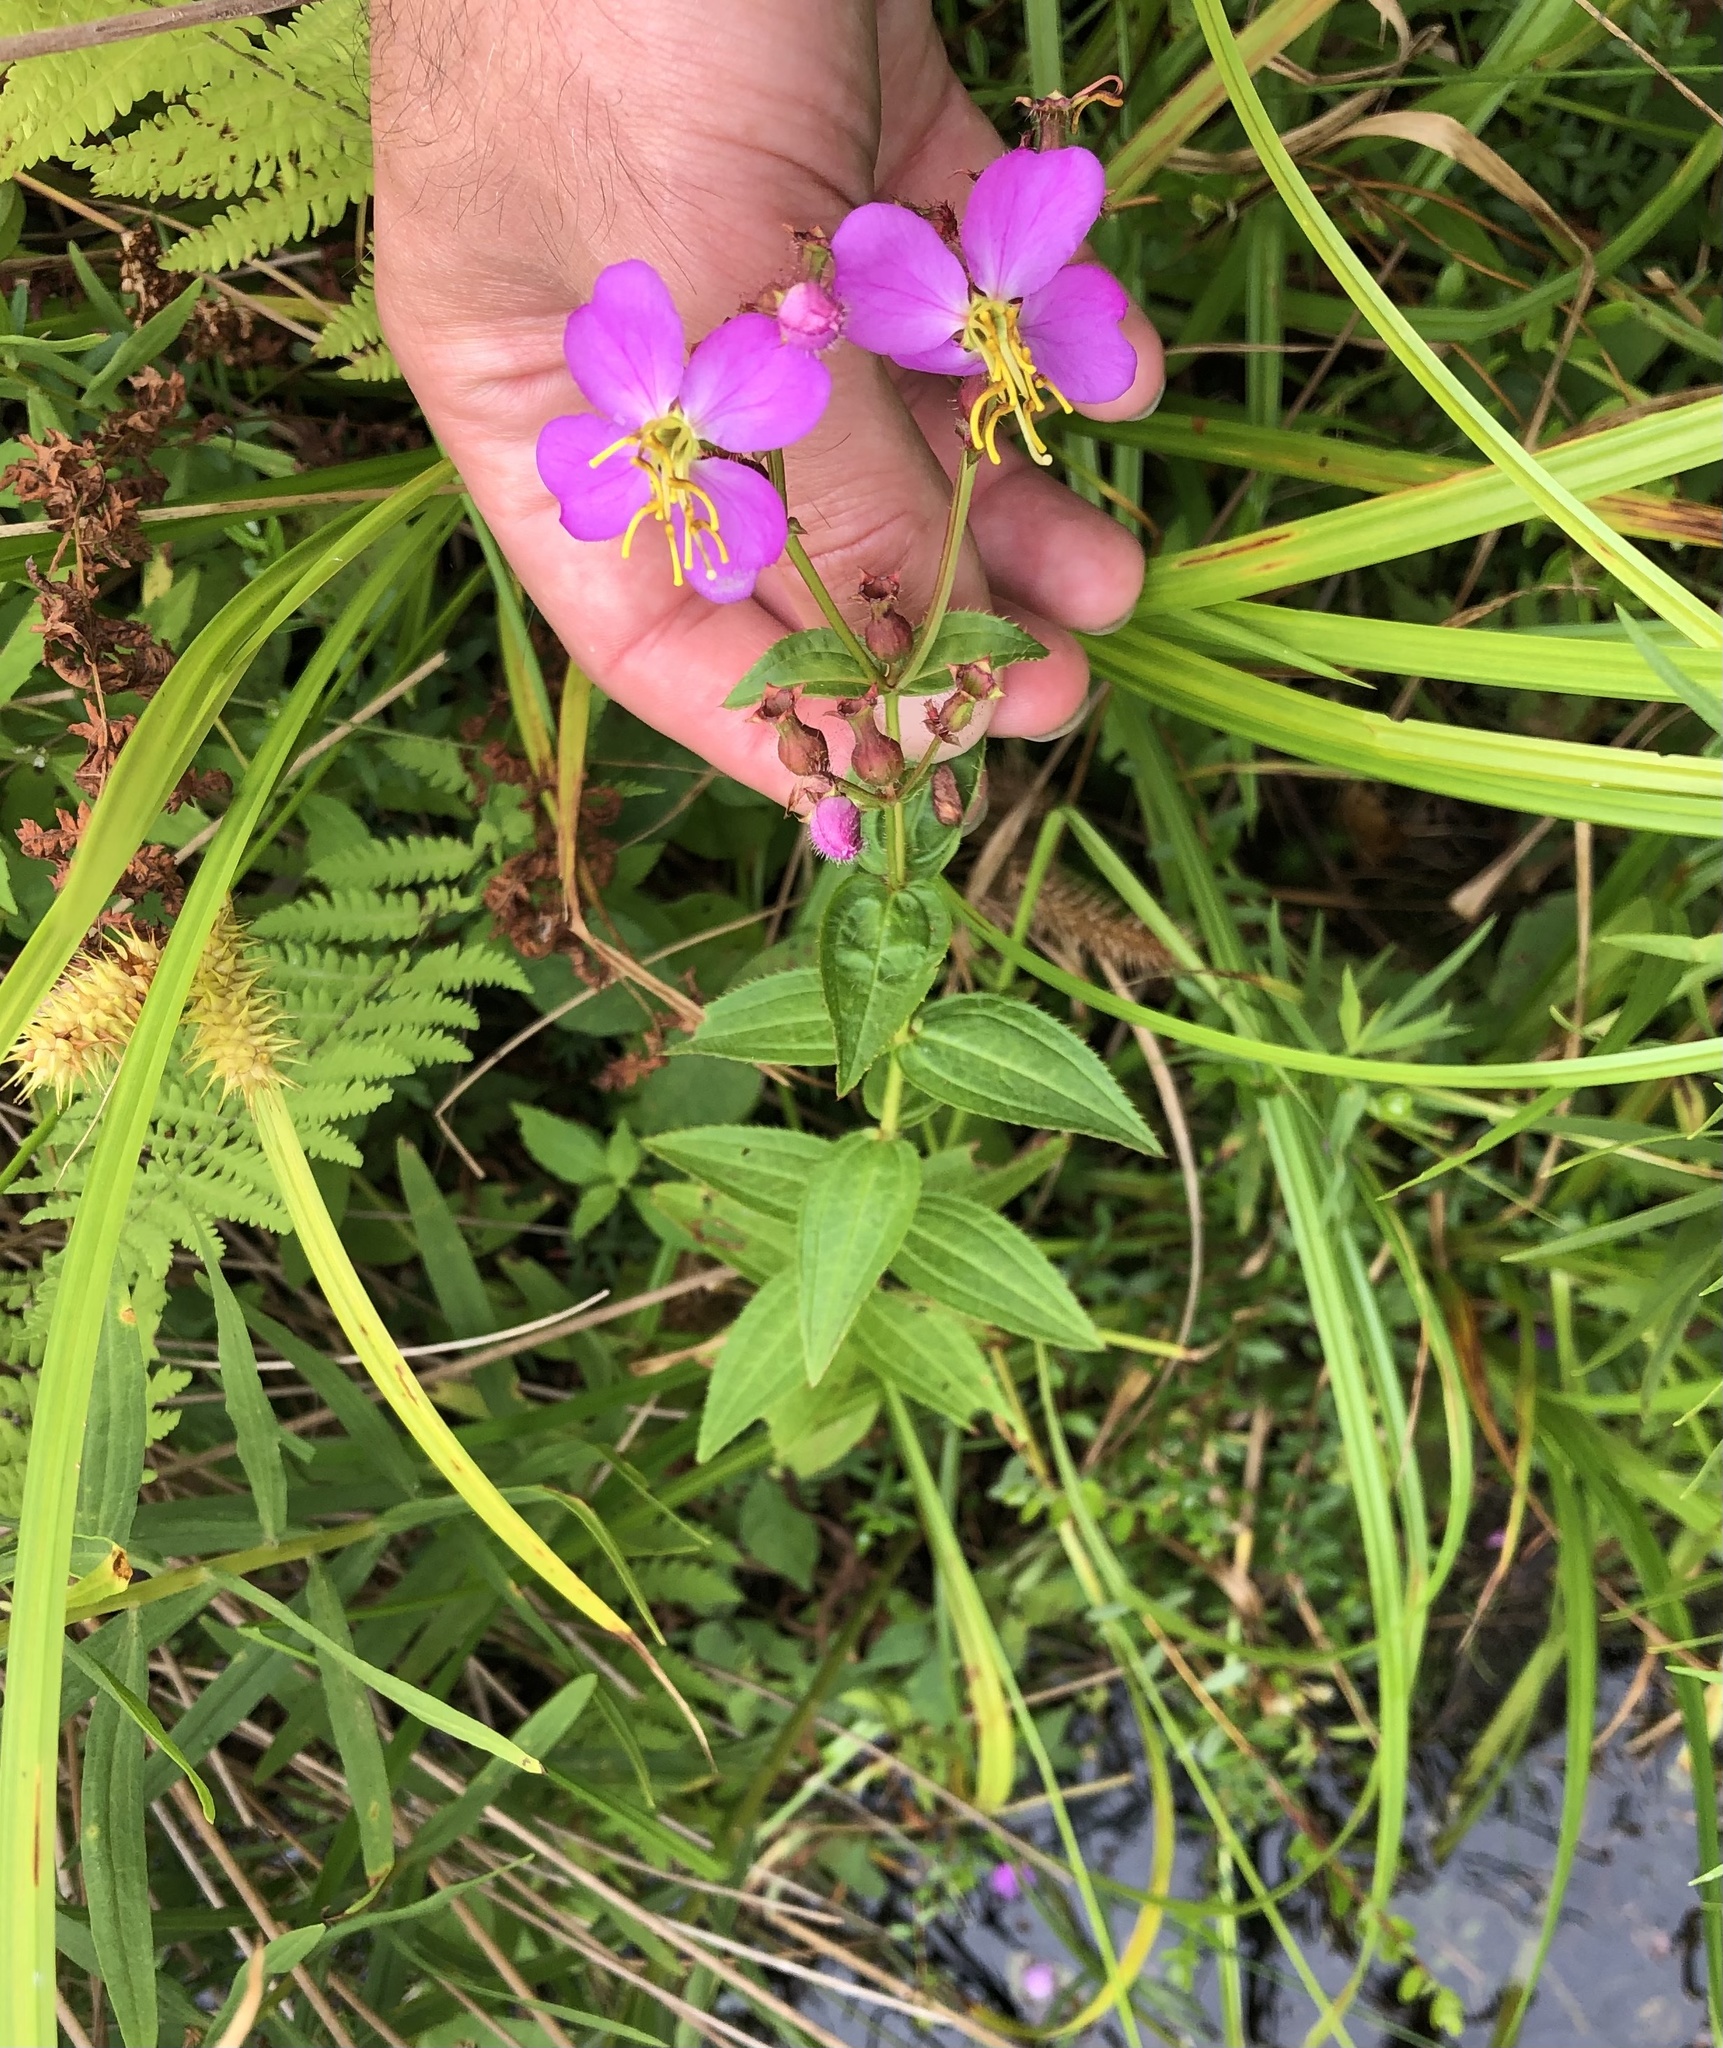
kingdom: Plantae
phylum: Tracheophyta
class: Magnoliopsida
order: Myrtales
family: Melastomataceae
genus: Rhexia
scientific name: Rhexia virginica
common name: Common meadow beauty
